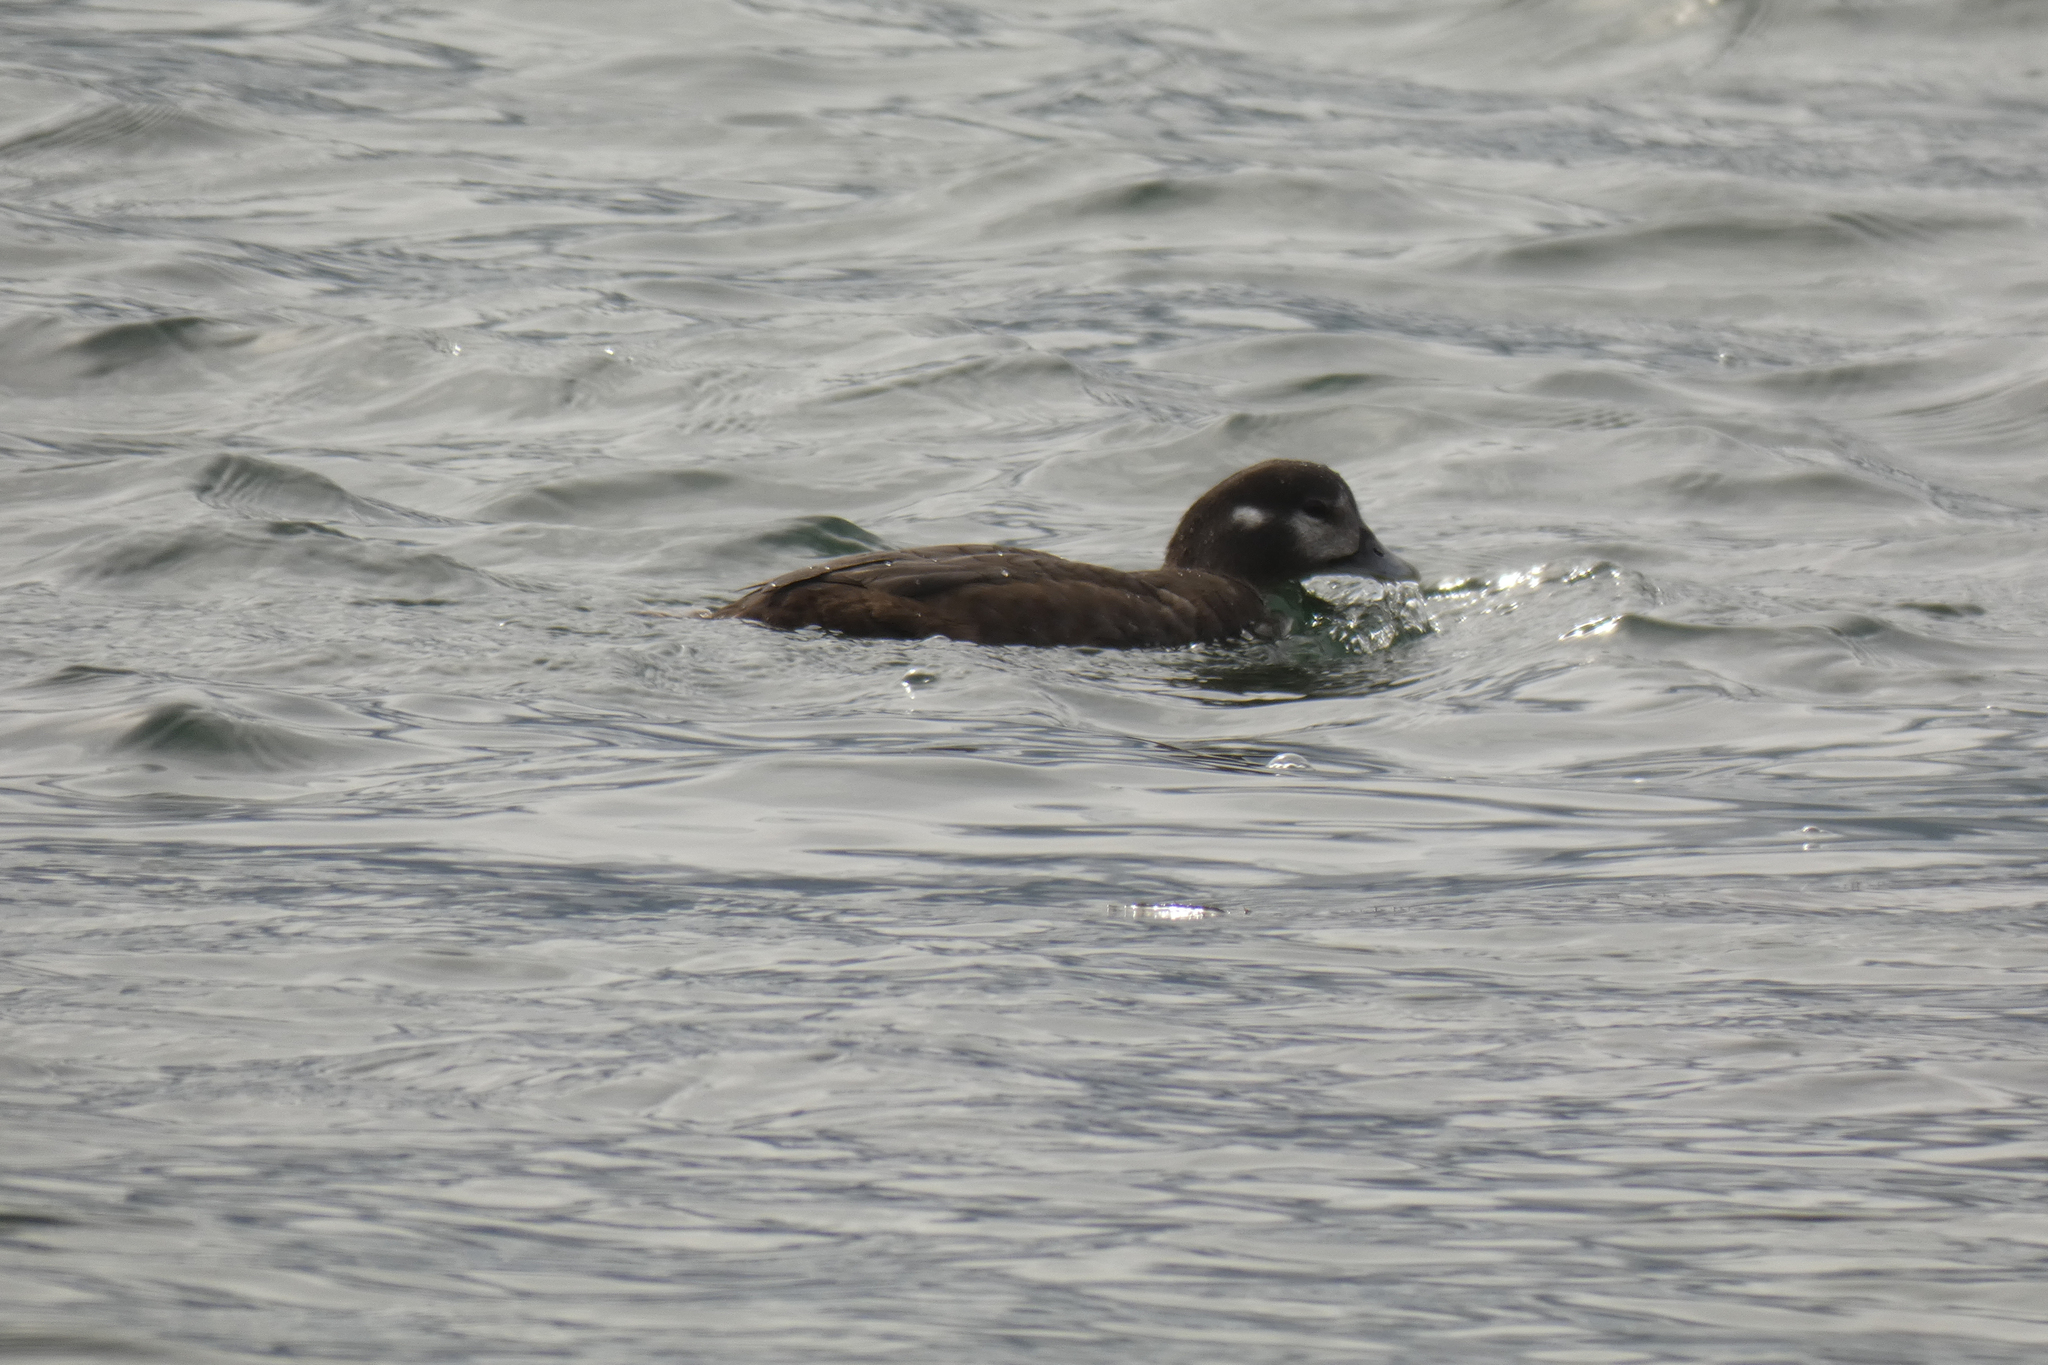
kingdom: Animalia
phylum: Chordata
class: Aves
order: Anseriformes
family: Anatidae
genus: Histrionicus
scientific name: Histrionicus histrionicus
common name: Harlequin duck
